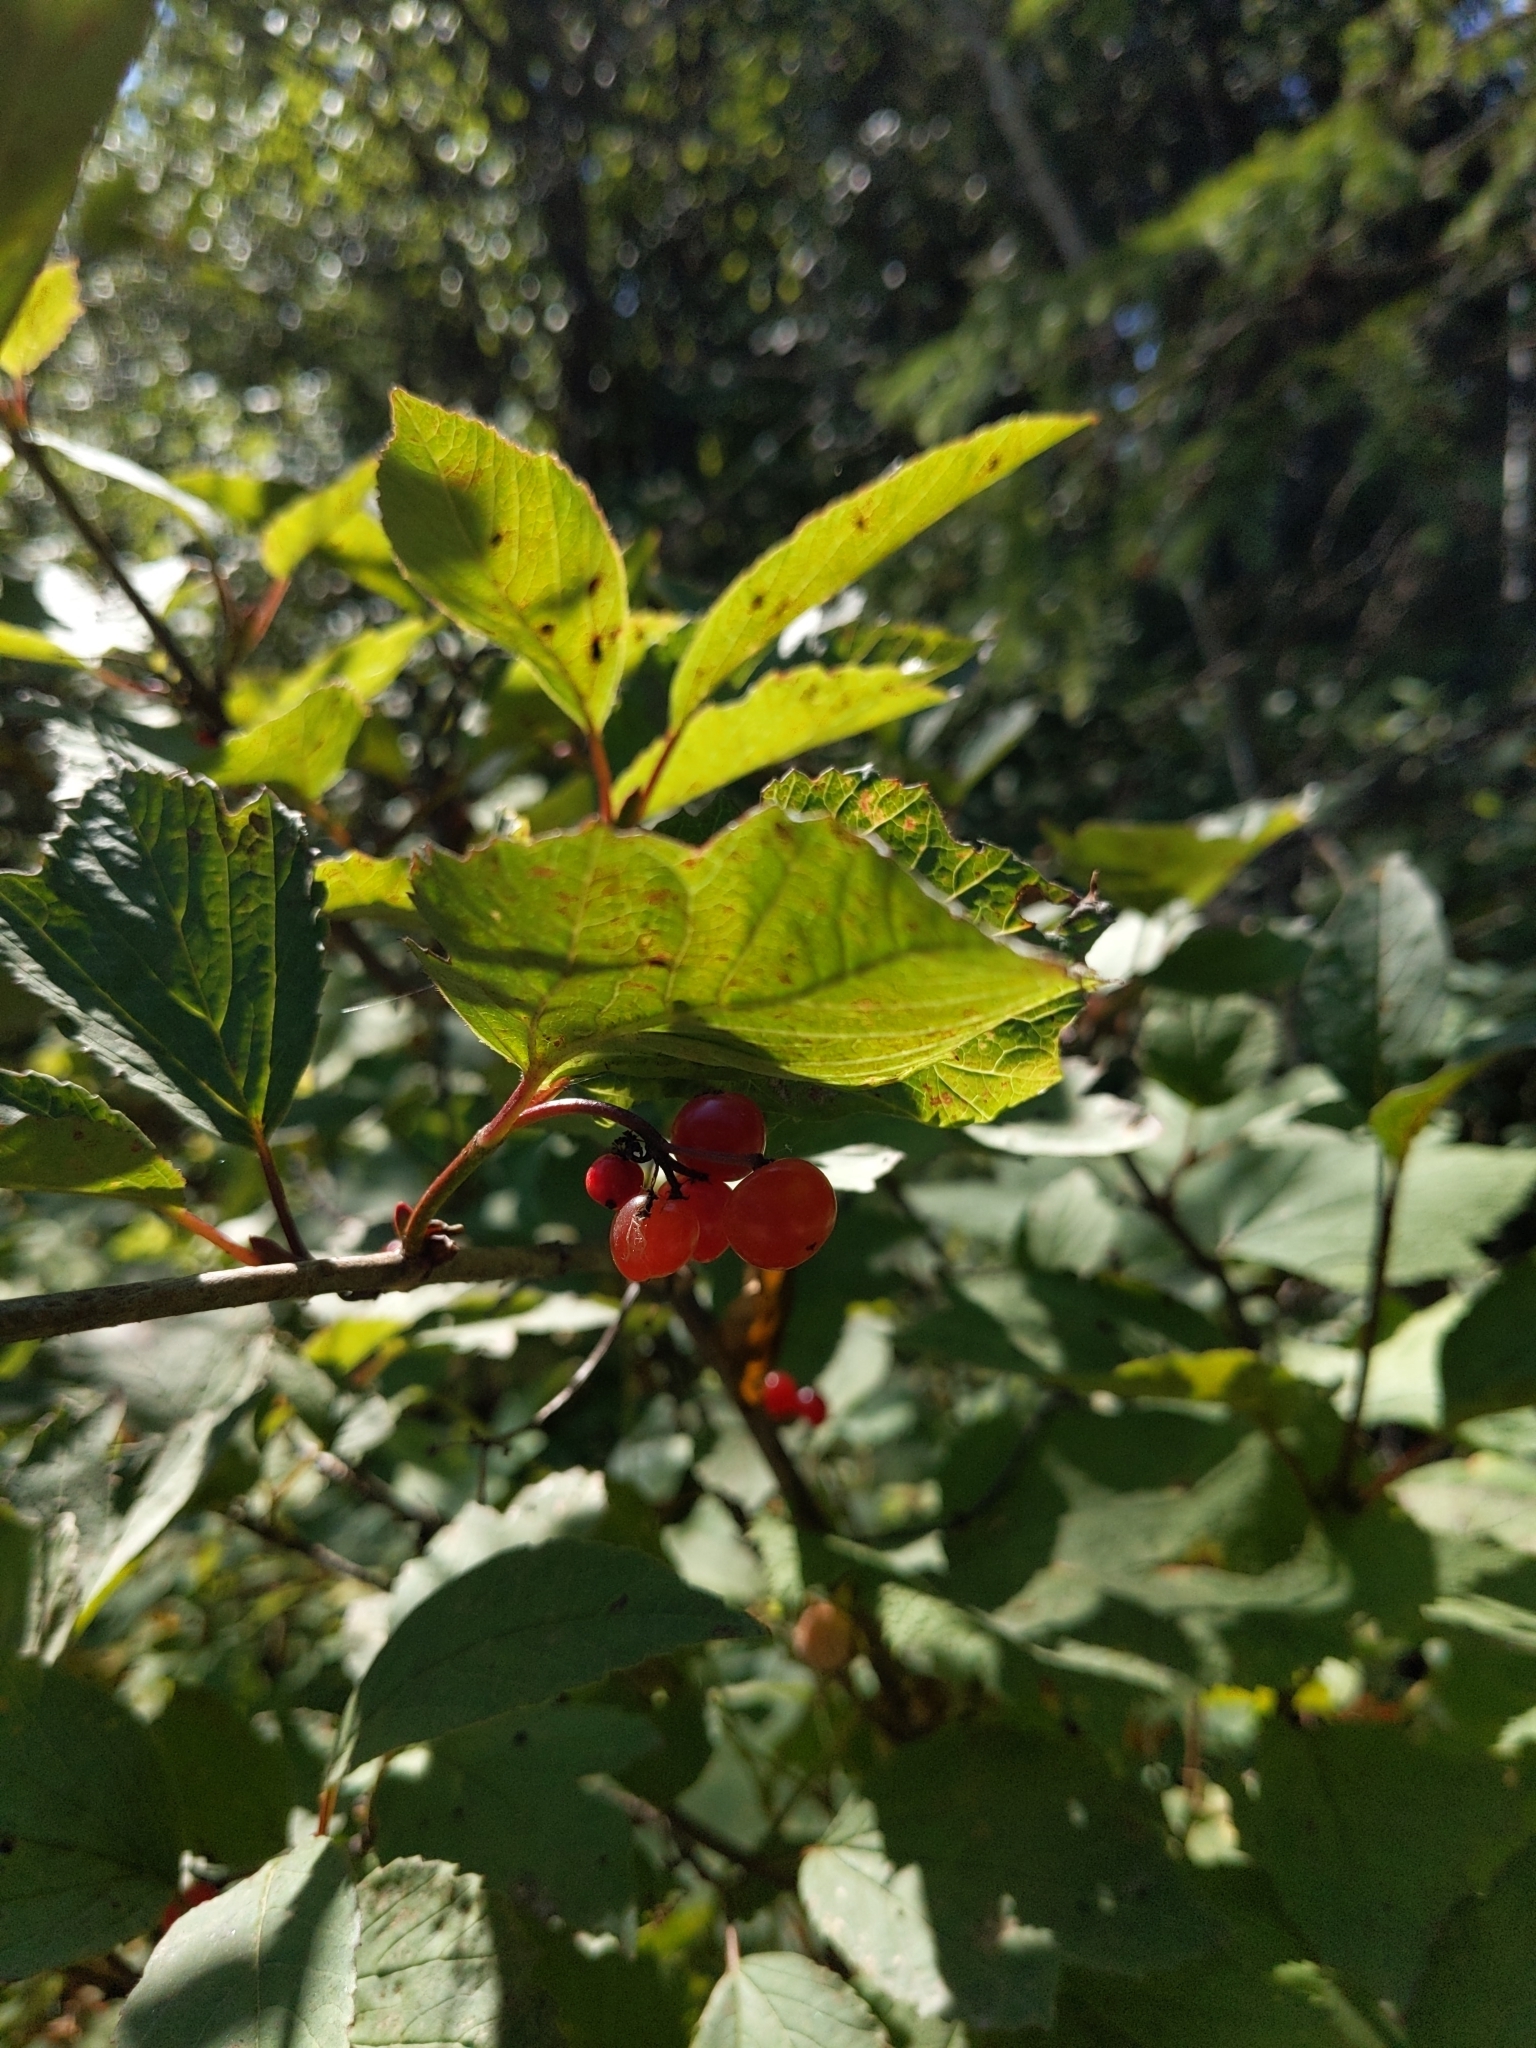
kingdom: Plantae
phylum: Tracheophyta
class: Magnoliopsida
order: Dipsacales
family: Viburnaceae
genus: Viburnum
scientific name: Viburnum edule
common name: Mooseberry
